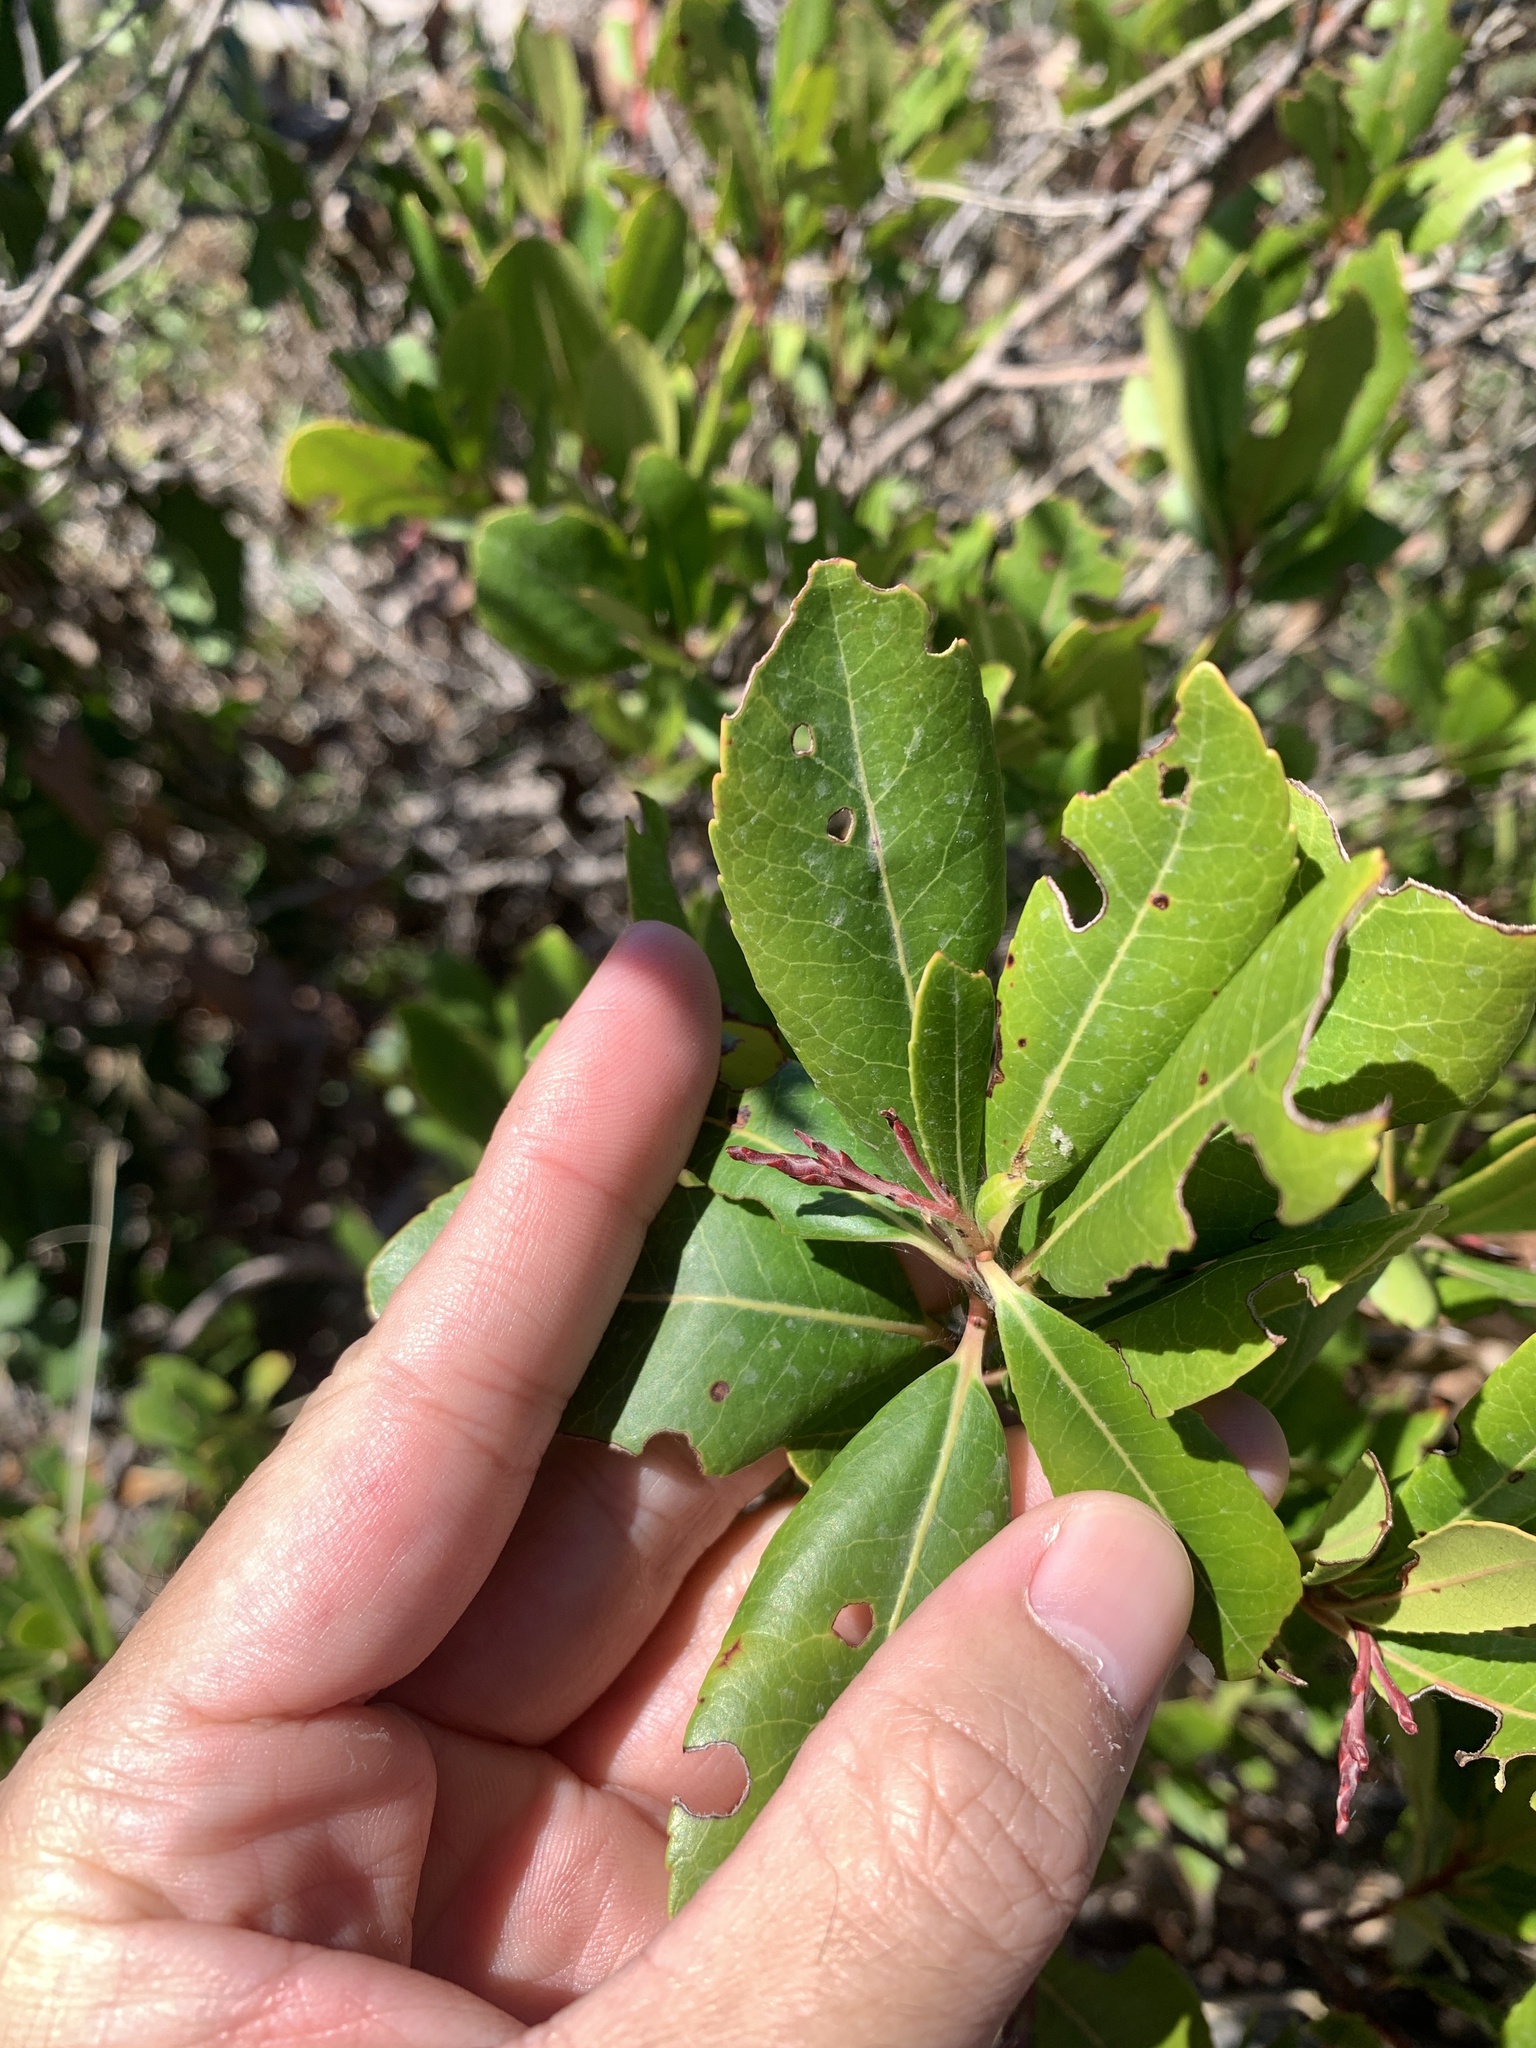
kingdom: Plantae
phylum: Tracheophyta
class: Magnoliopsida
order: Ericales
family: Ericaceae
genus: Arbutus
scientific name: Arbutus unedo
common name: Strawberry-tree
